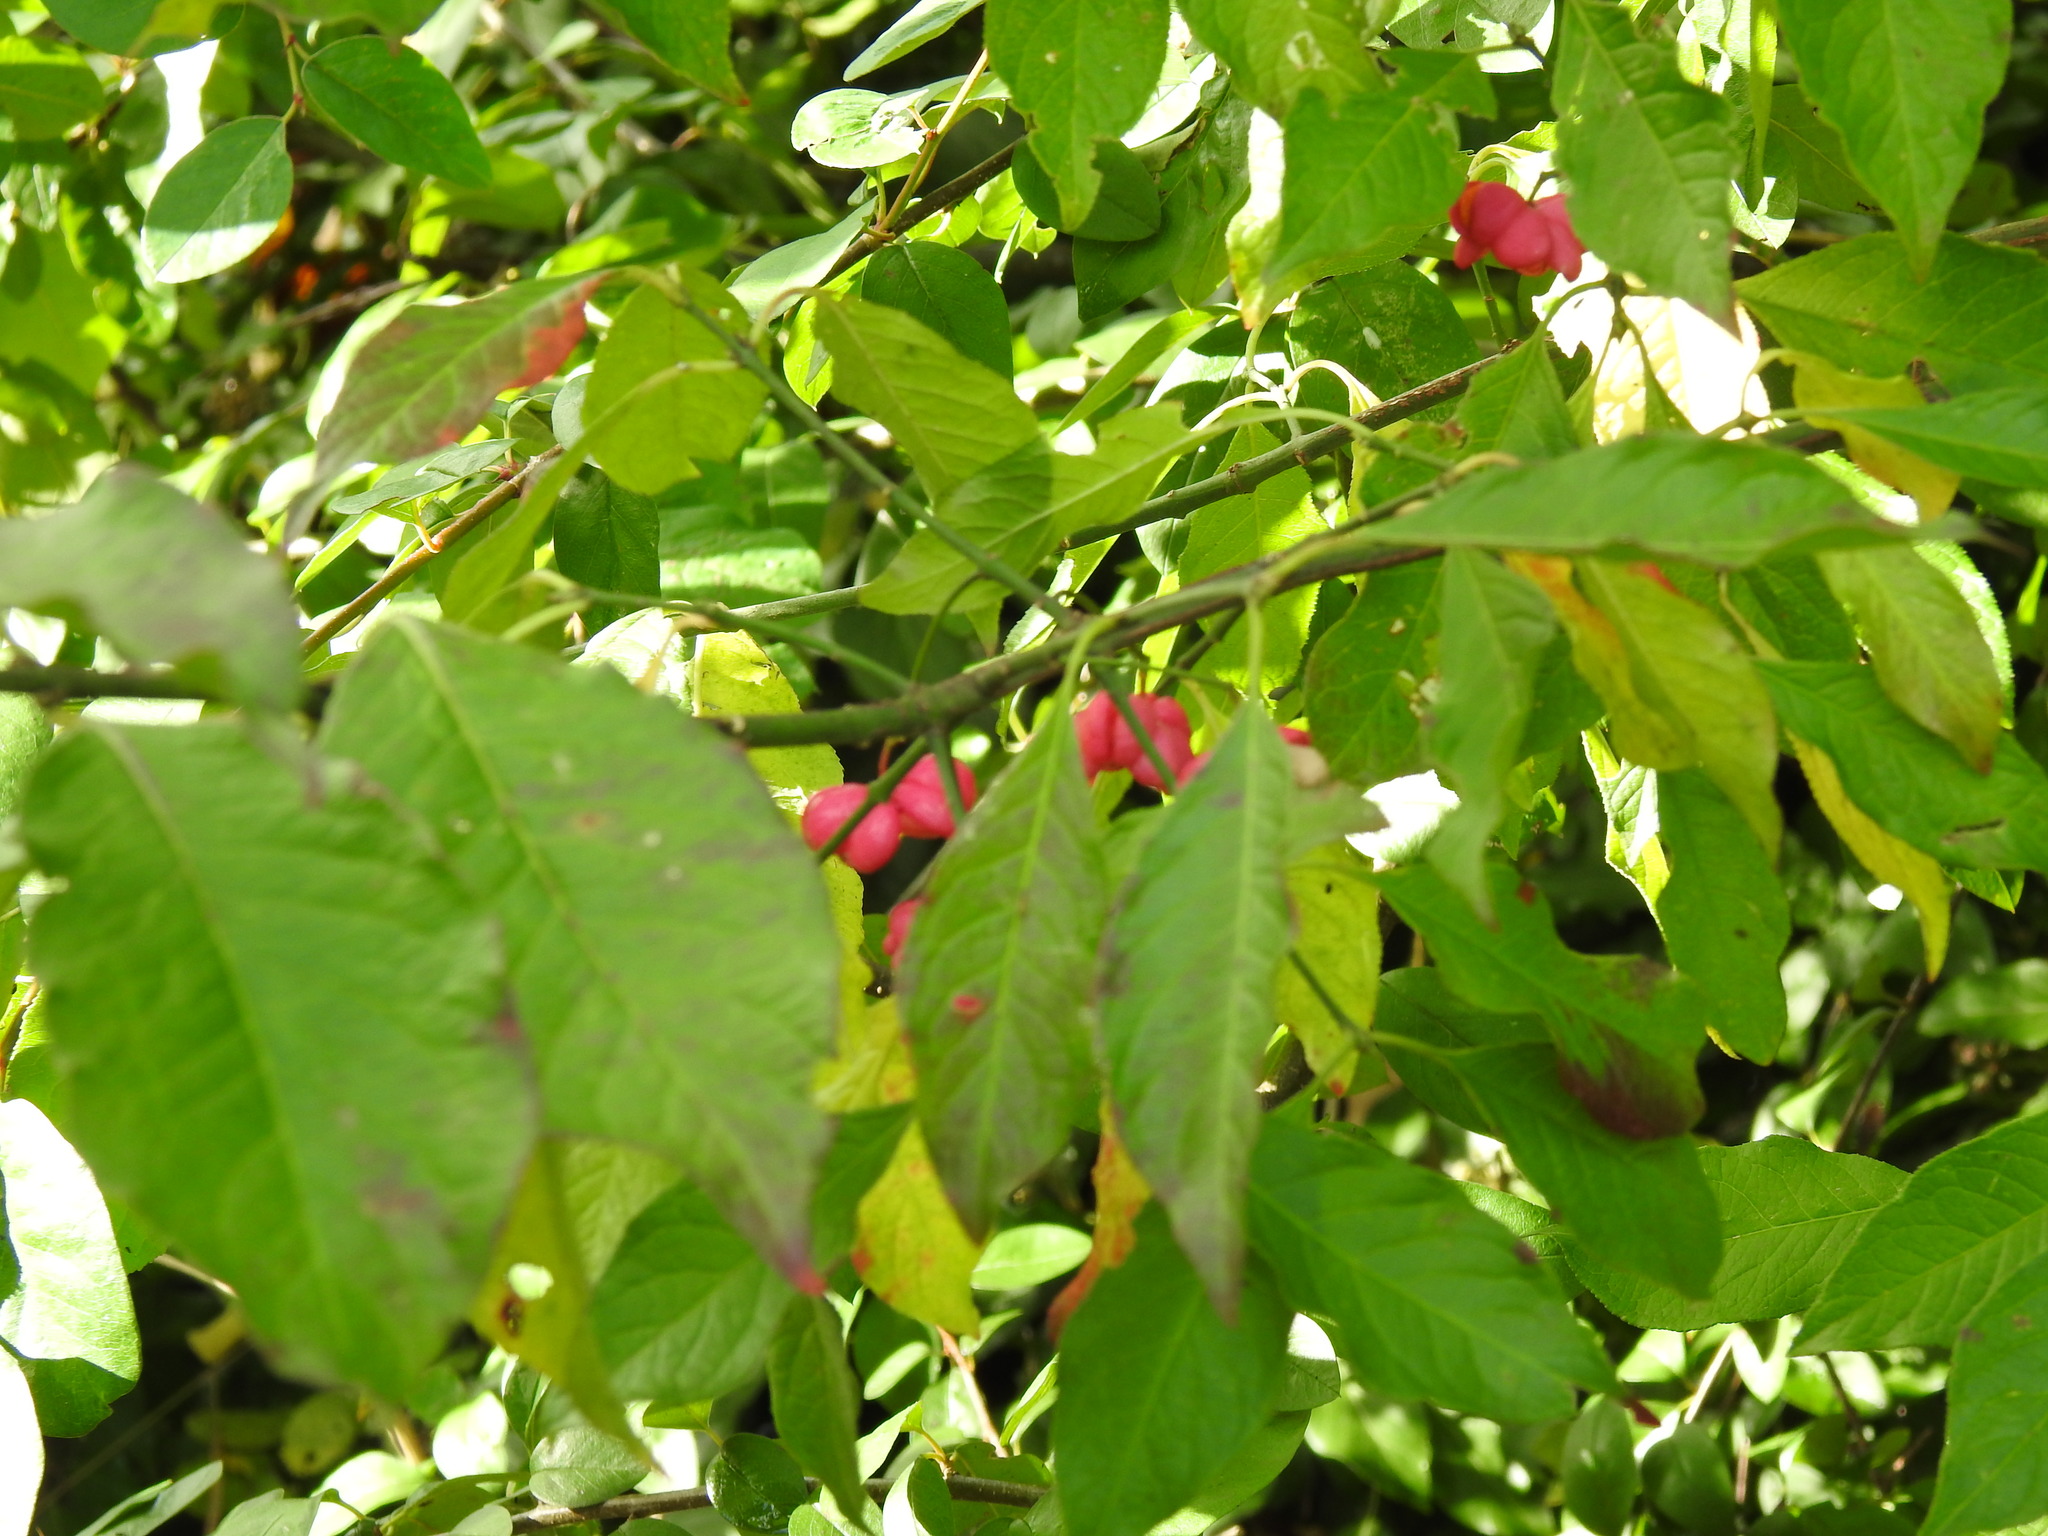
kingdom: Plantae
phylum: Tracheophyta
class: Magnoliopsida
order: Celastrales
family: Celastraceae
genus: Euonymus
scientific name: Euonymus europaeus
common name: Spindle
